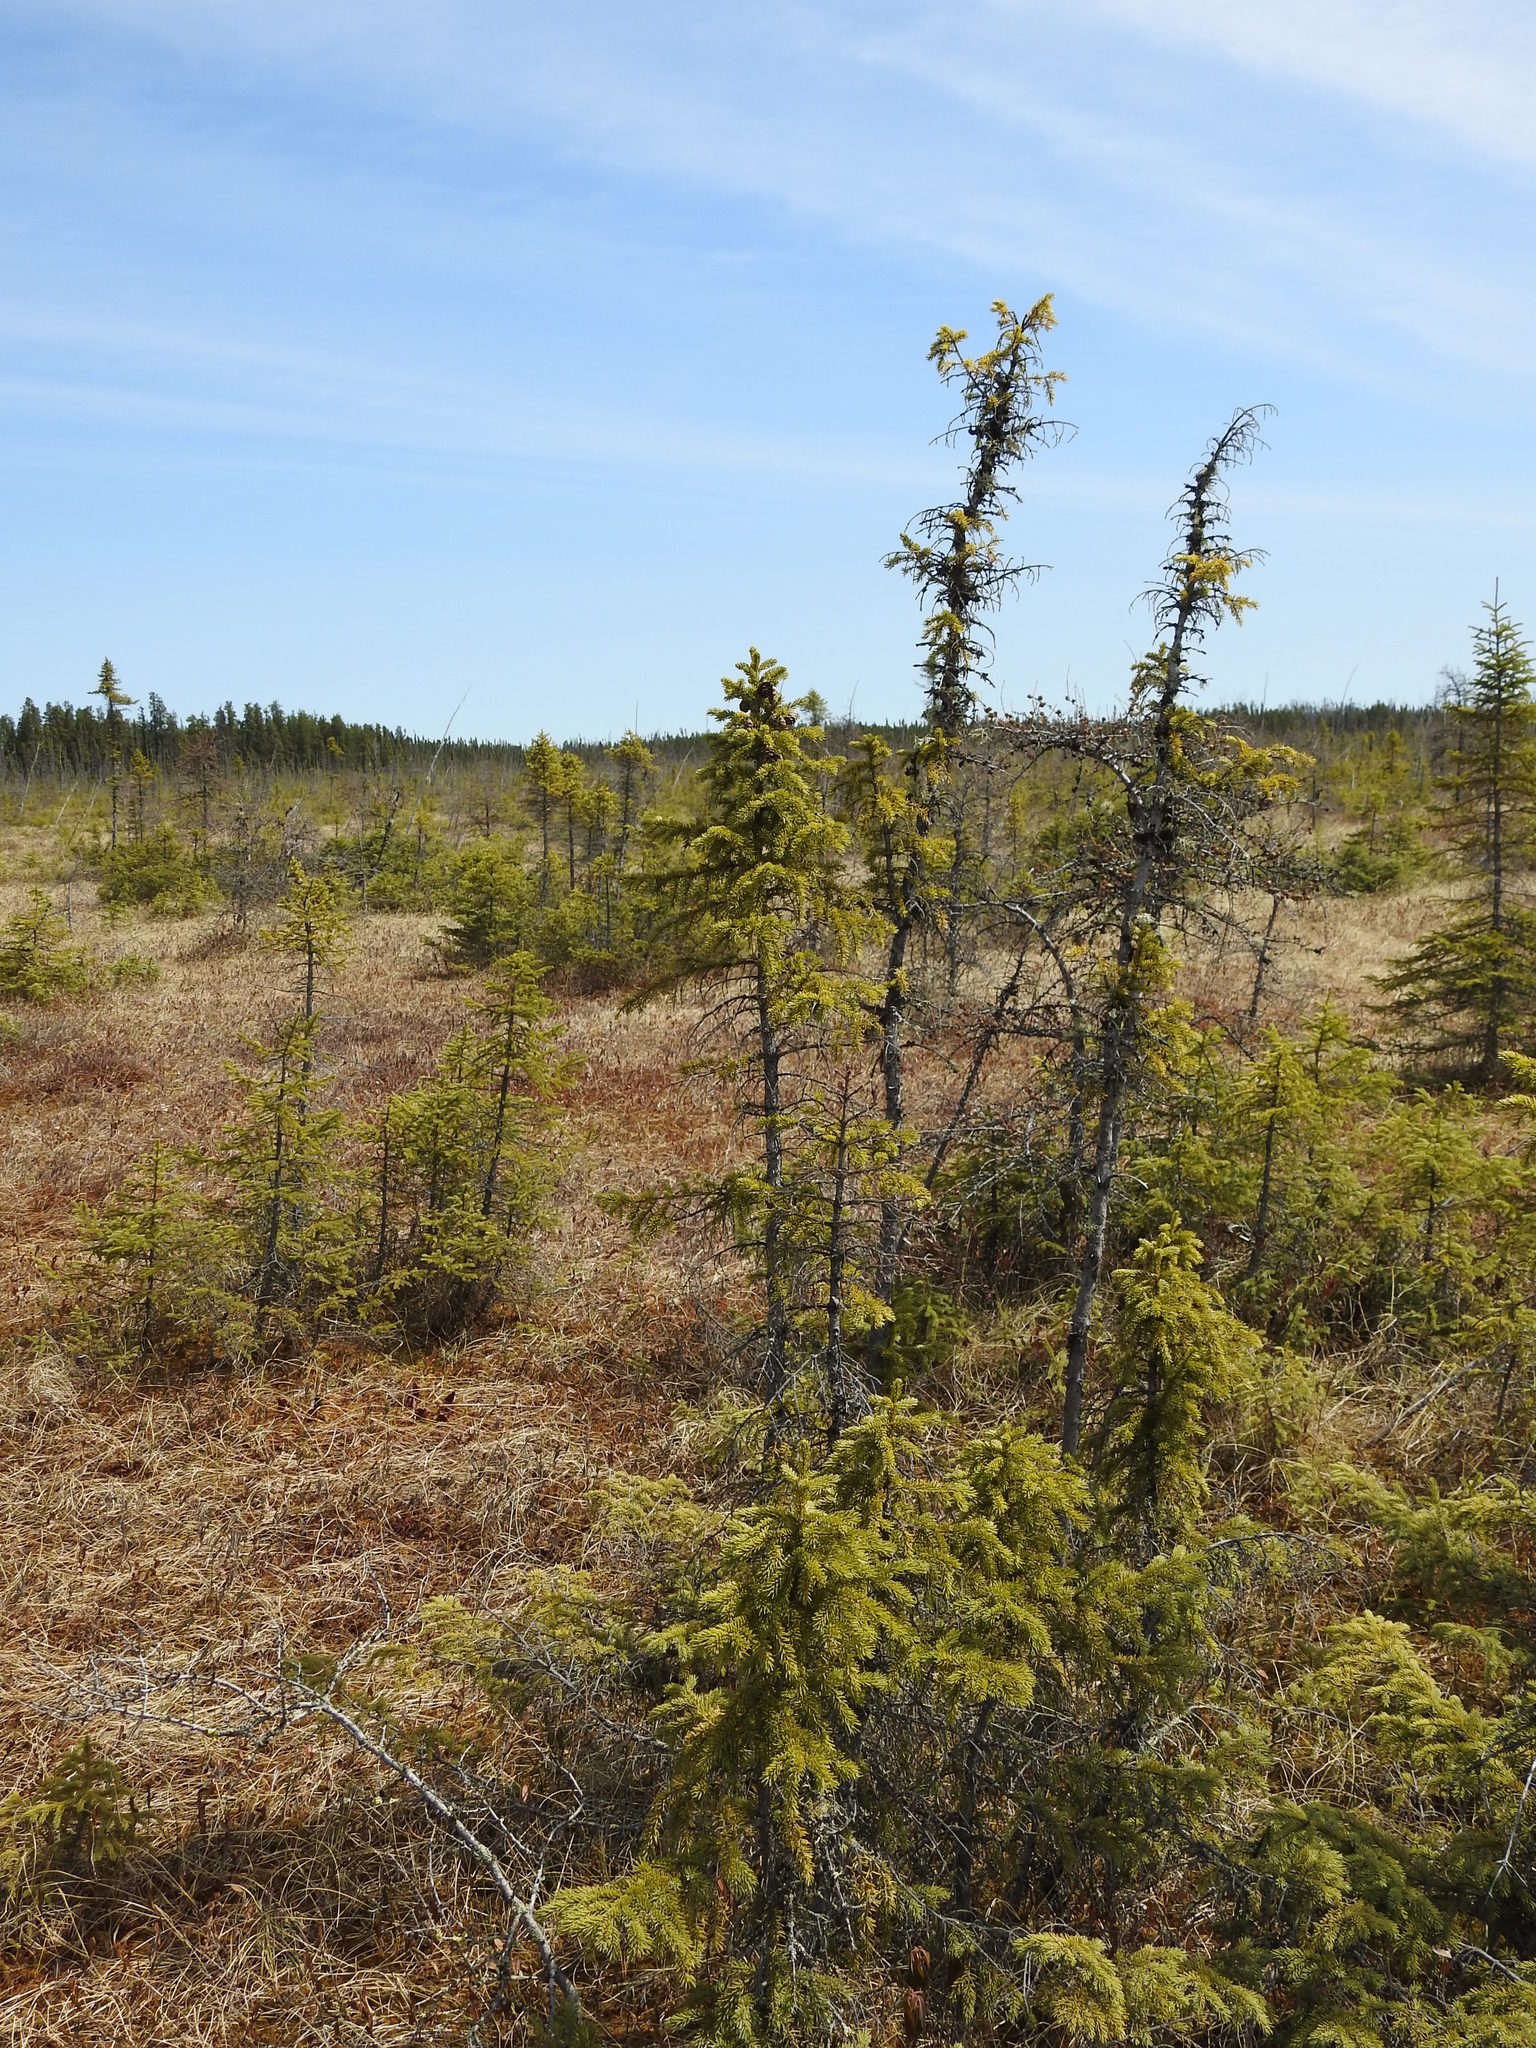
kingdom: Plantae
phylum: Tracheophyta
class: Pinopsida
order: Pinales
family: Pinaceae
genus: Picea
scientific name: Picea mariana
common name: Black spruce
